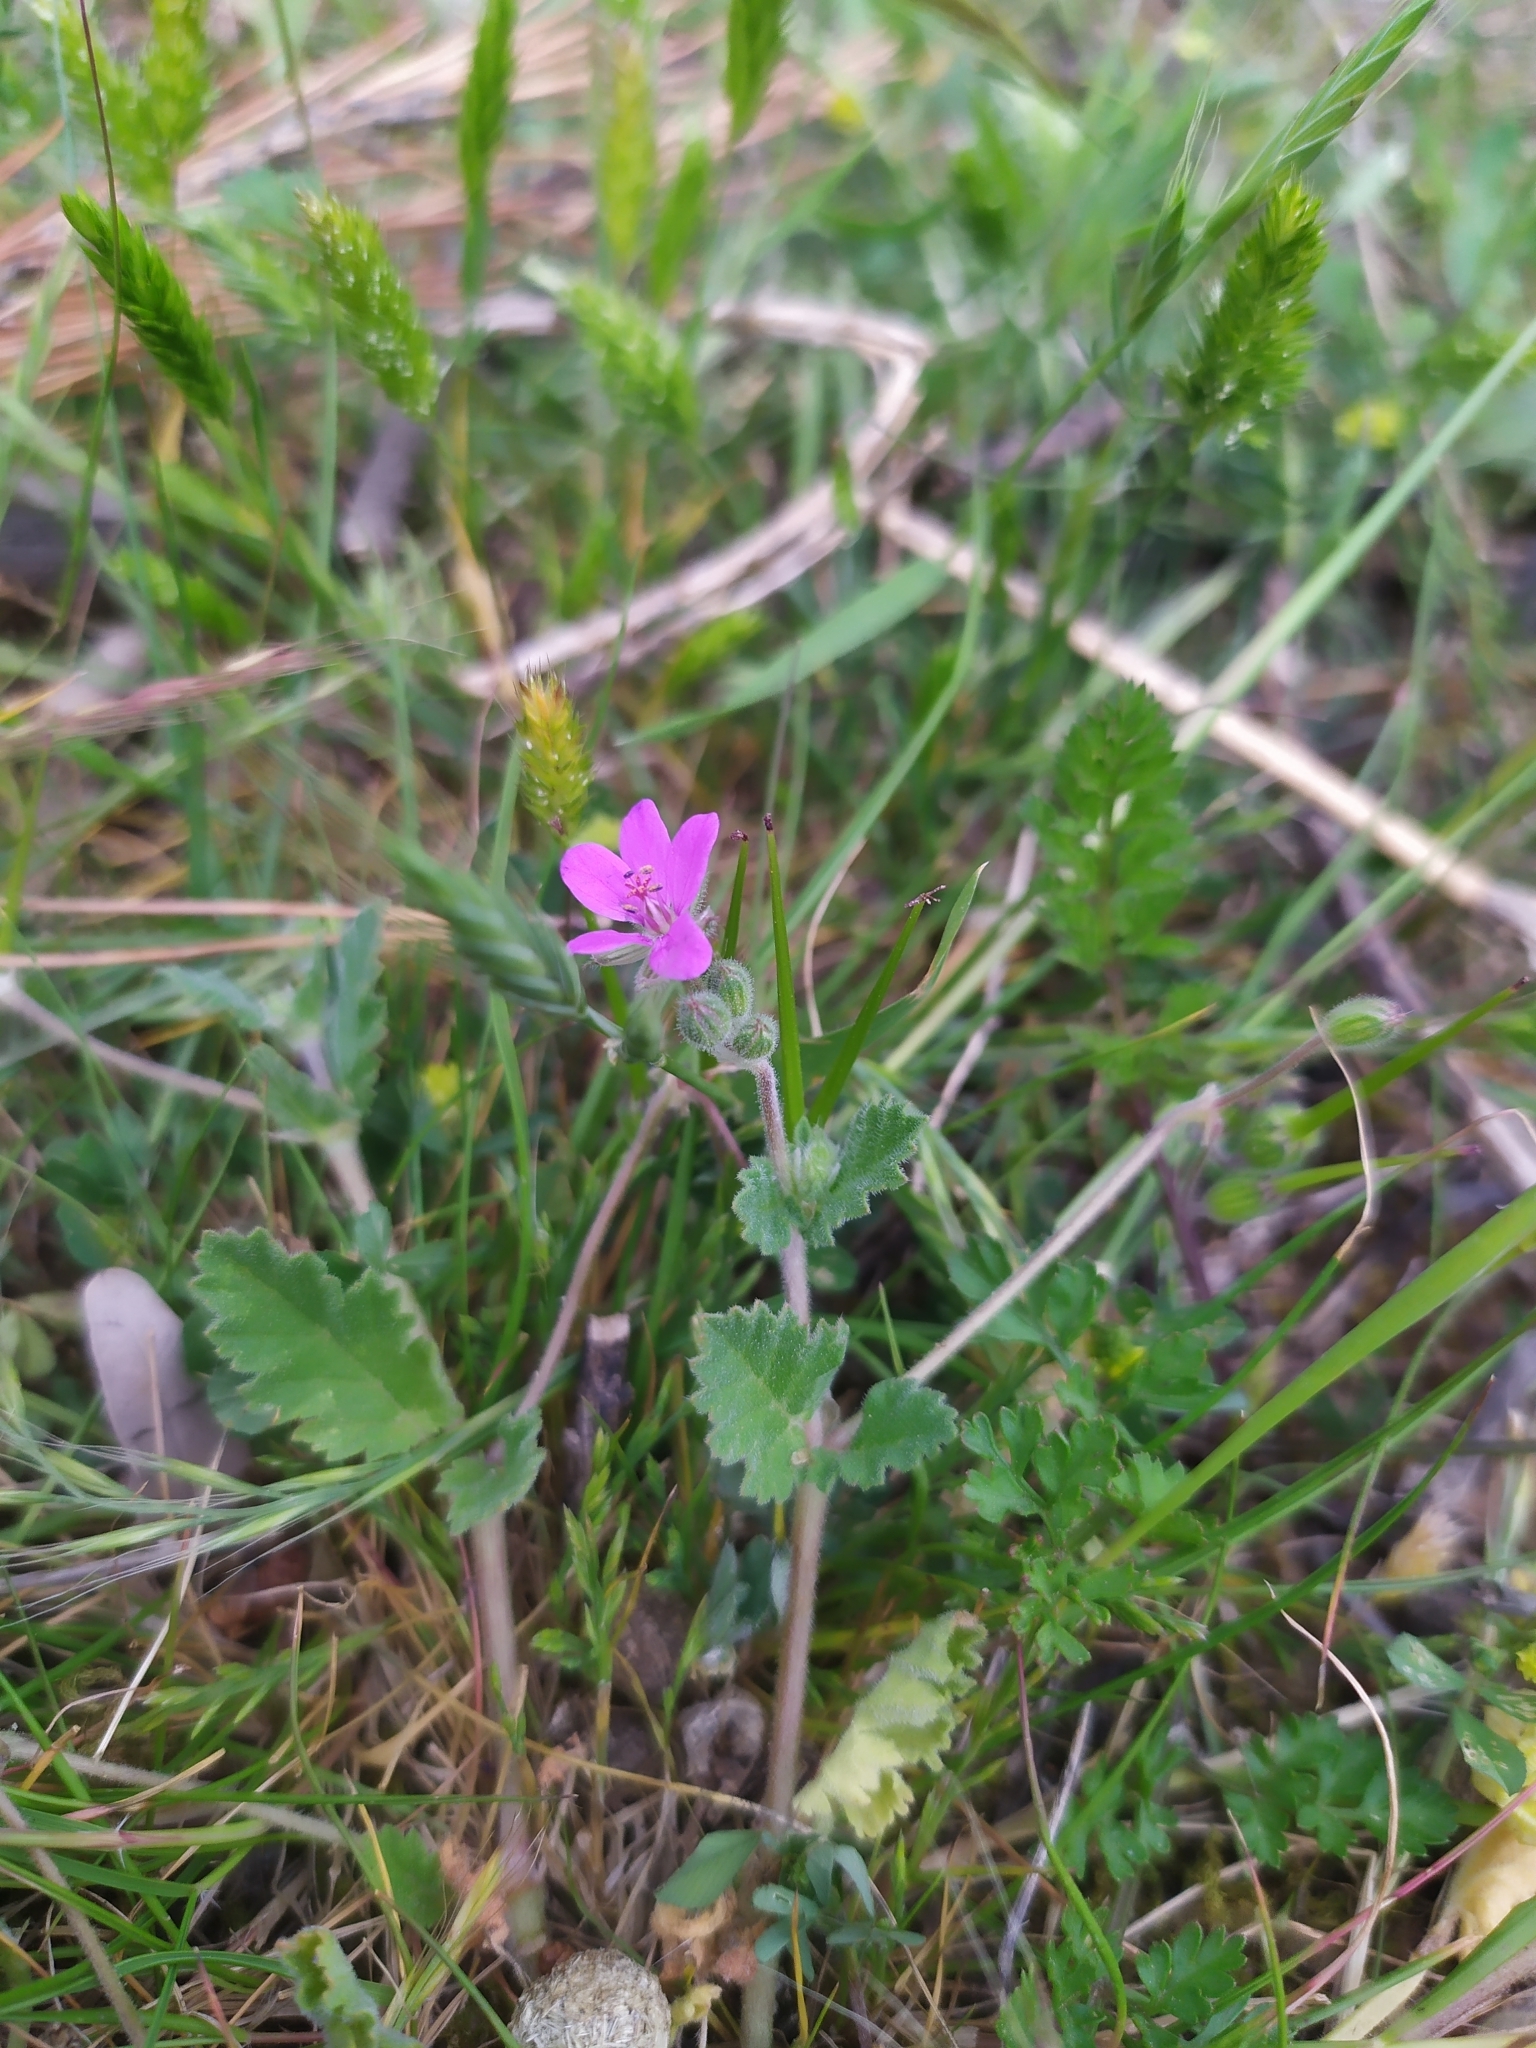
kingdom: Plantae
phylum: Tracheophyta
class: Magnoliopsida
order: Geraniales
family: Geraniaceae
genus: Erodium
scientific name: Erodium malacoides
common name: Soft stork's-bill
